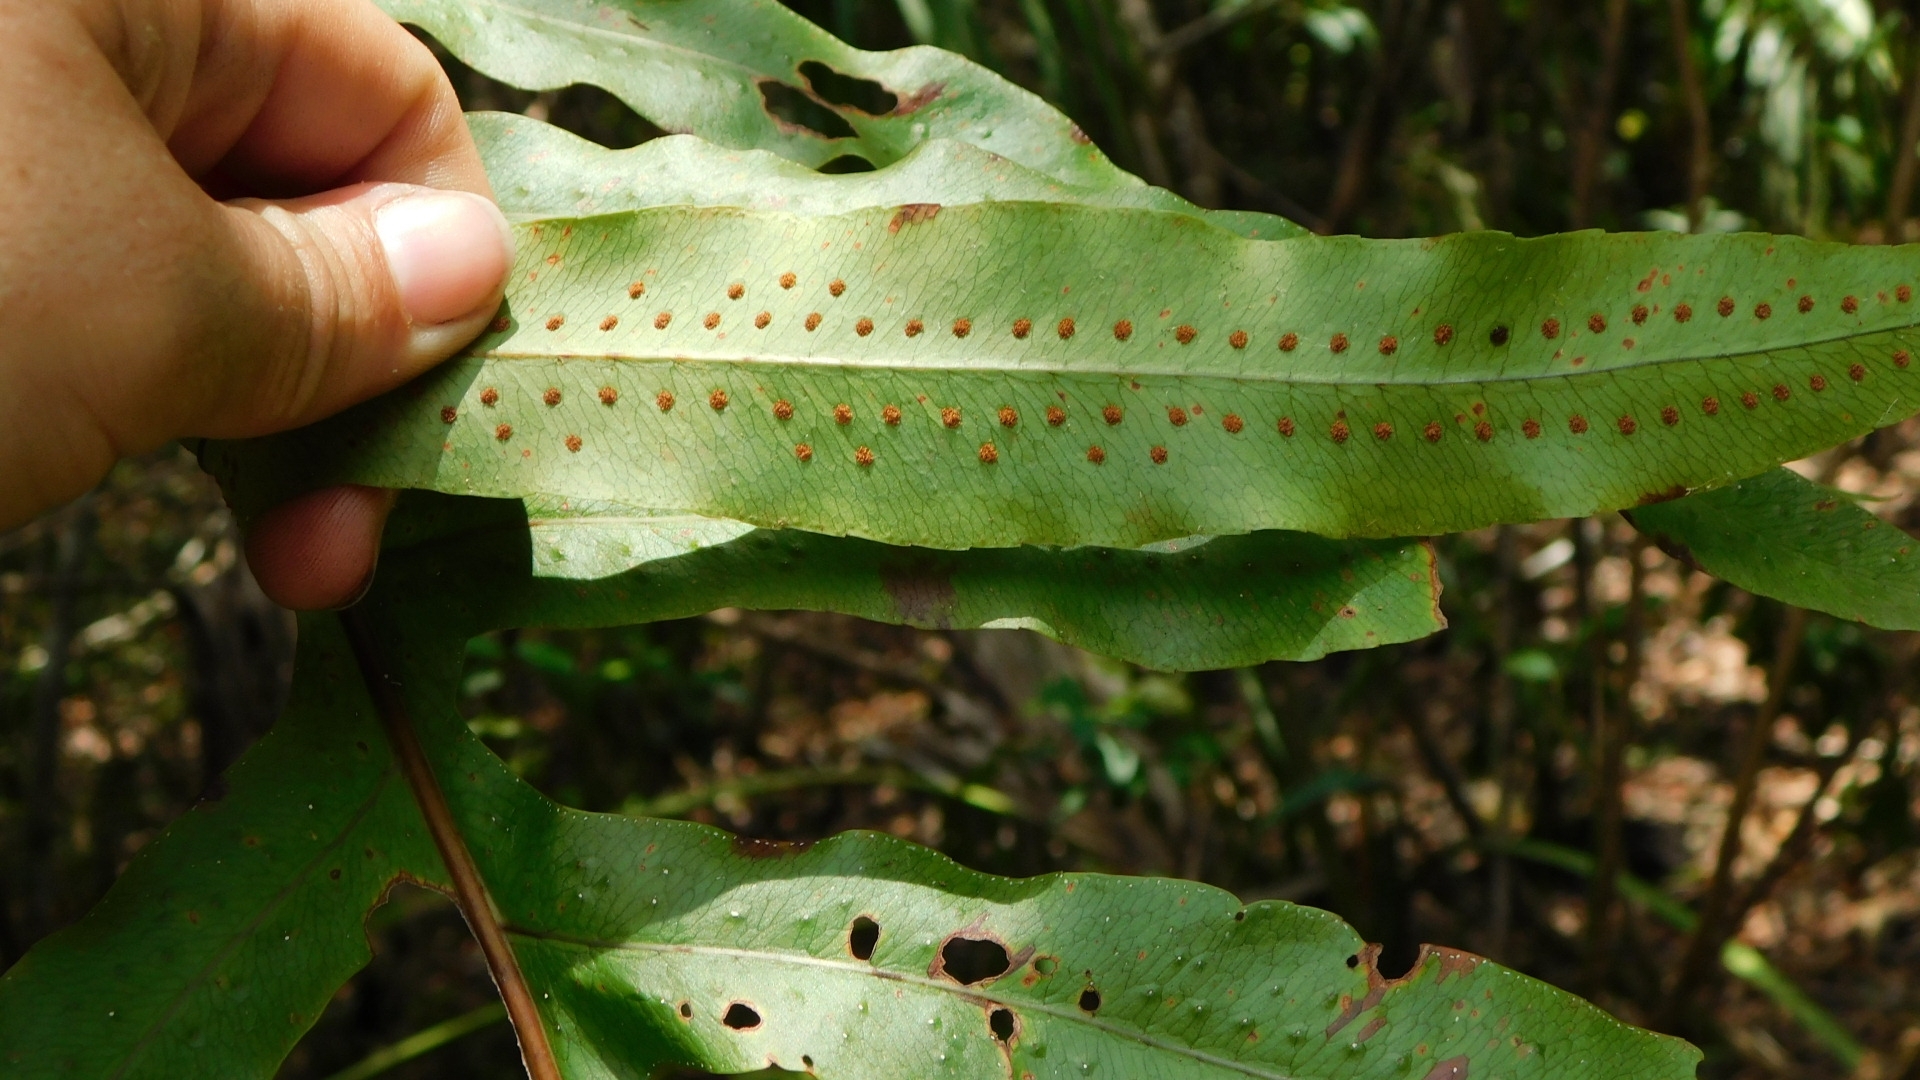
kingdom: Plantae
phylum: Tracheophyta
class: Polypodiopsida
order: Polypodiales
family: Polypodiaceae
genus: Phlebodium
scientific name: Phlebodium aureum
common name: Gold-foot fern
